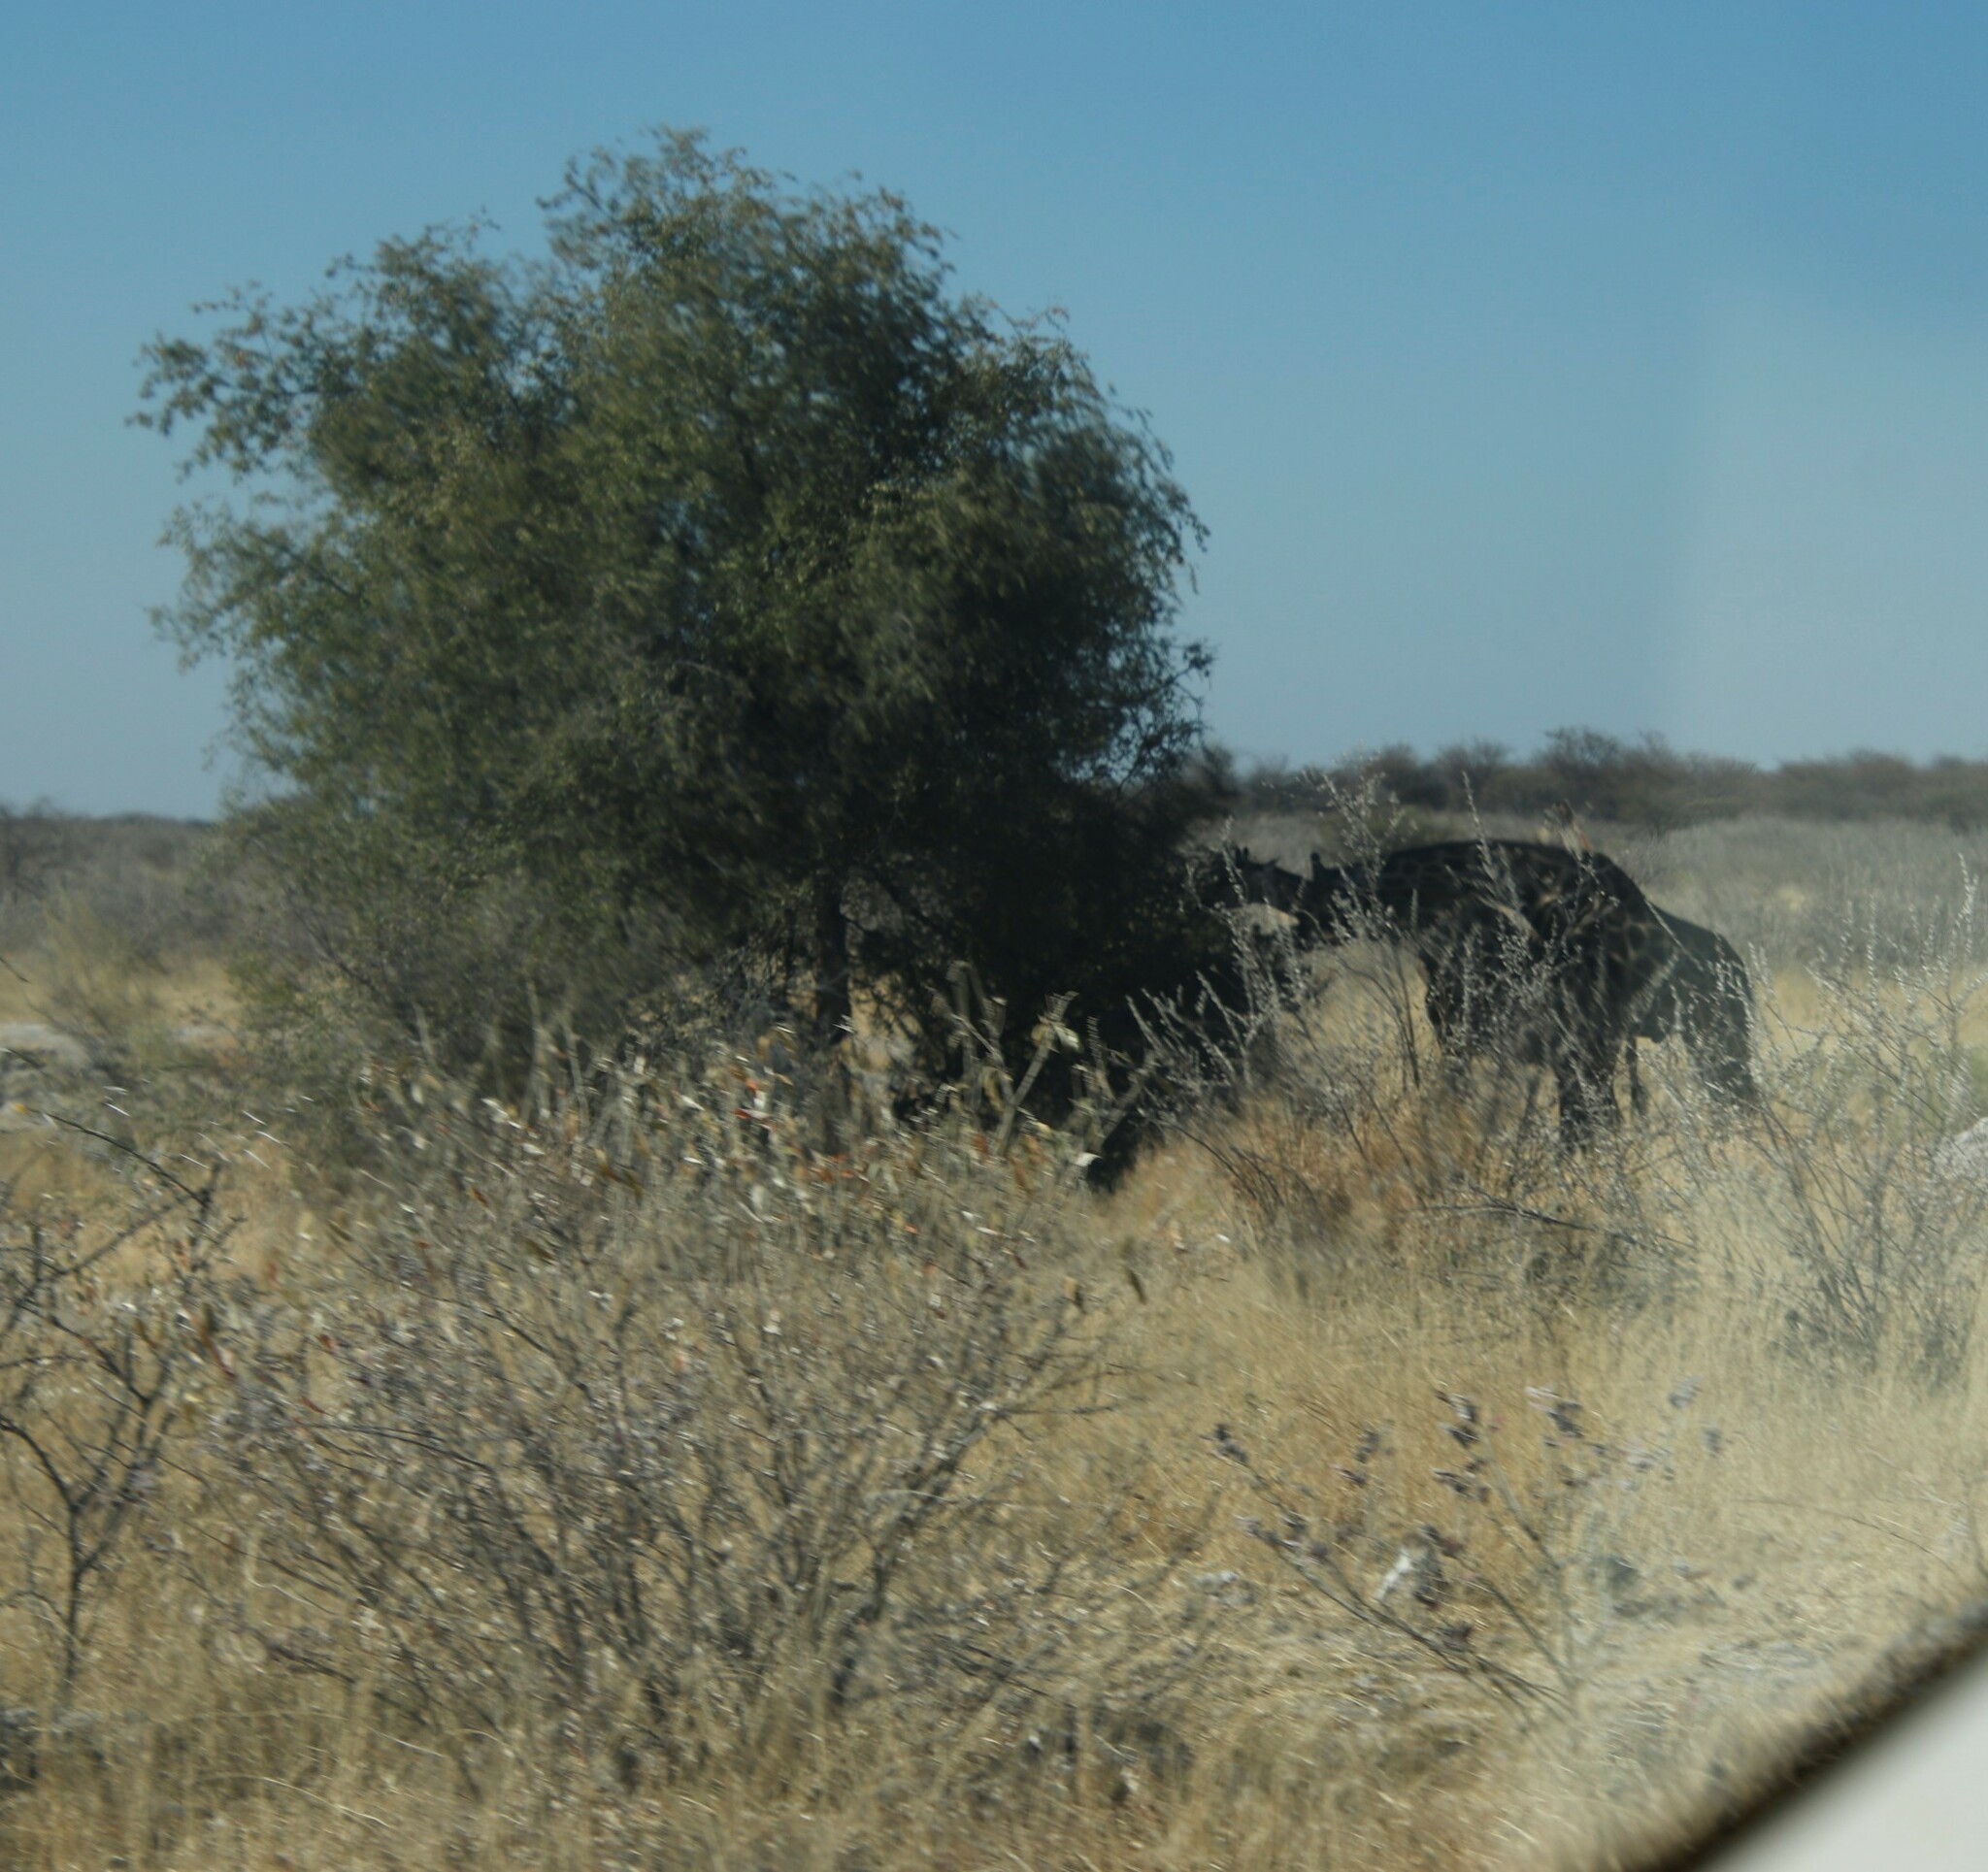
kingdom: Animalia
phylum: Chordata
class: Mammalia
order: Artiodactyla
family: Giraffidae
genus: Giraffa
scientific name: Giraffa giraffa
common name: Southern giraffe
